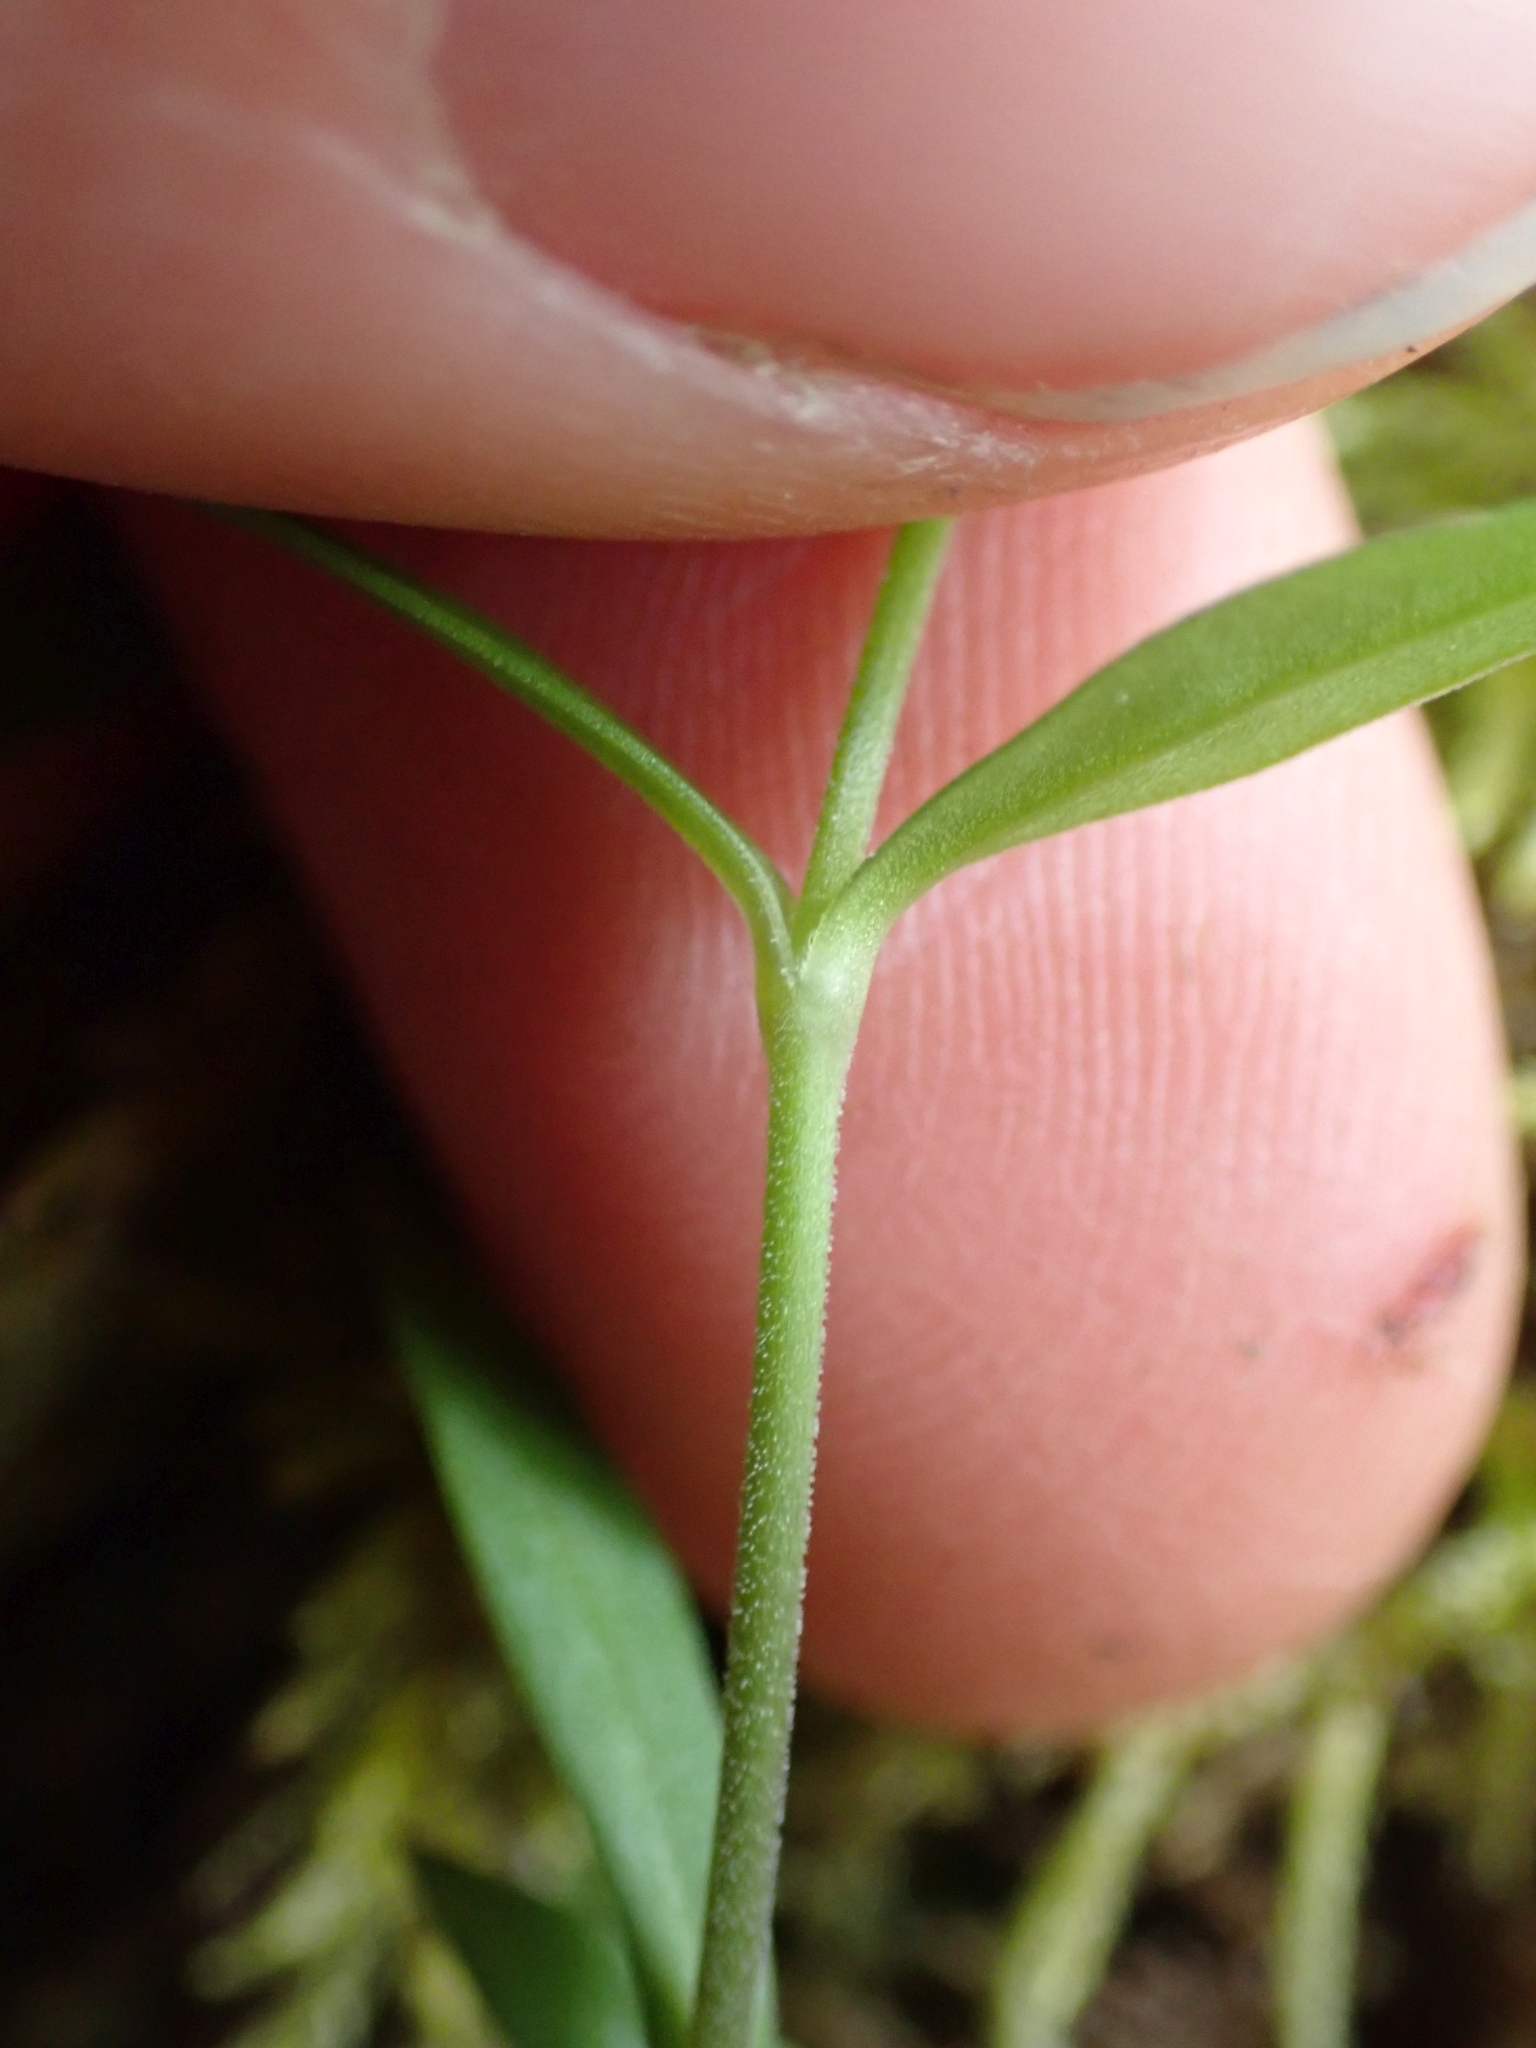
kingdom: Plantae
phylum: Tracheophyta
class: Magnoliopsida
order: Caryophyllales
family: Caryophyllaceae
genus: Moehringia
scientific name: Moehringia macrophylla
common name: Big-leaf sandwort
